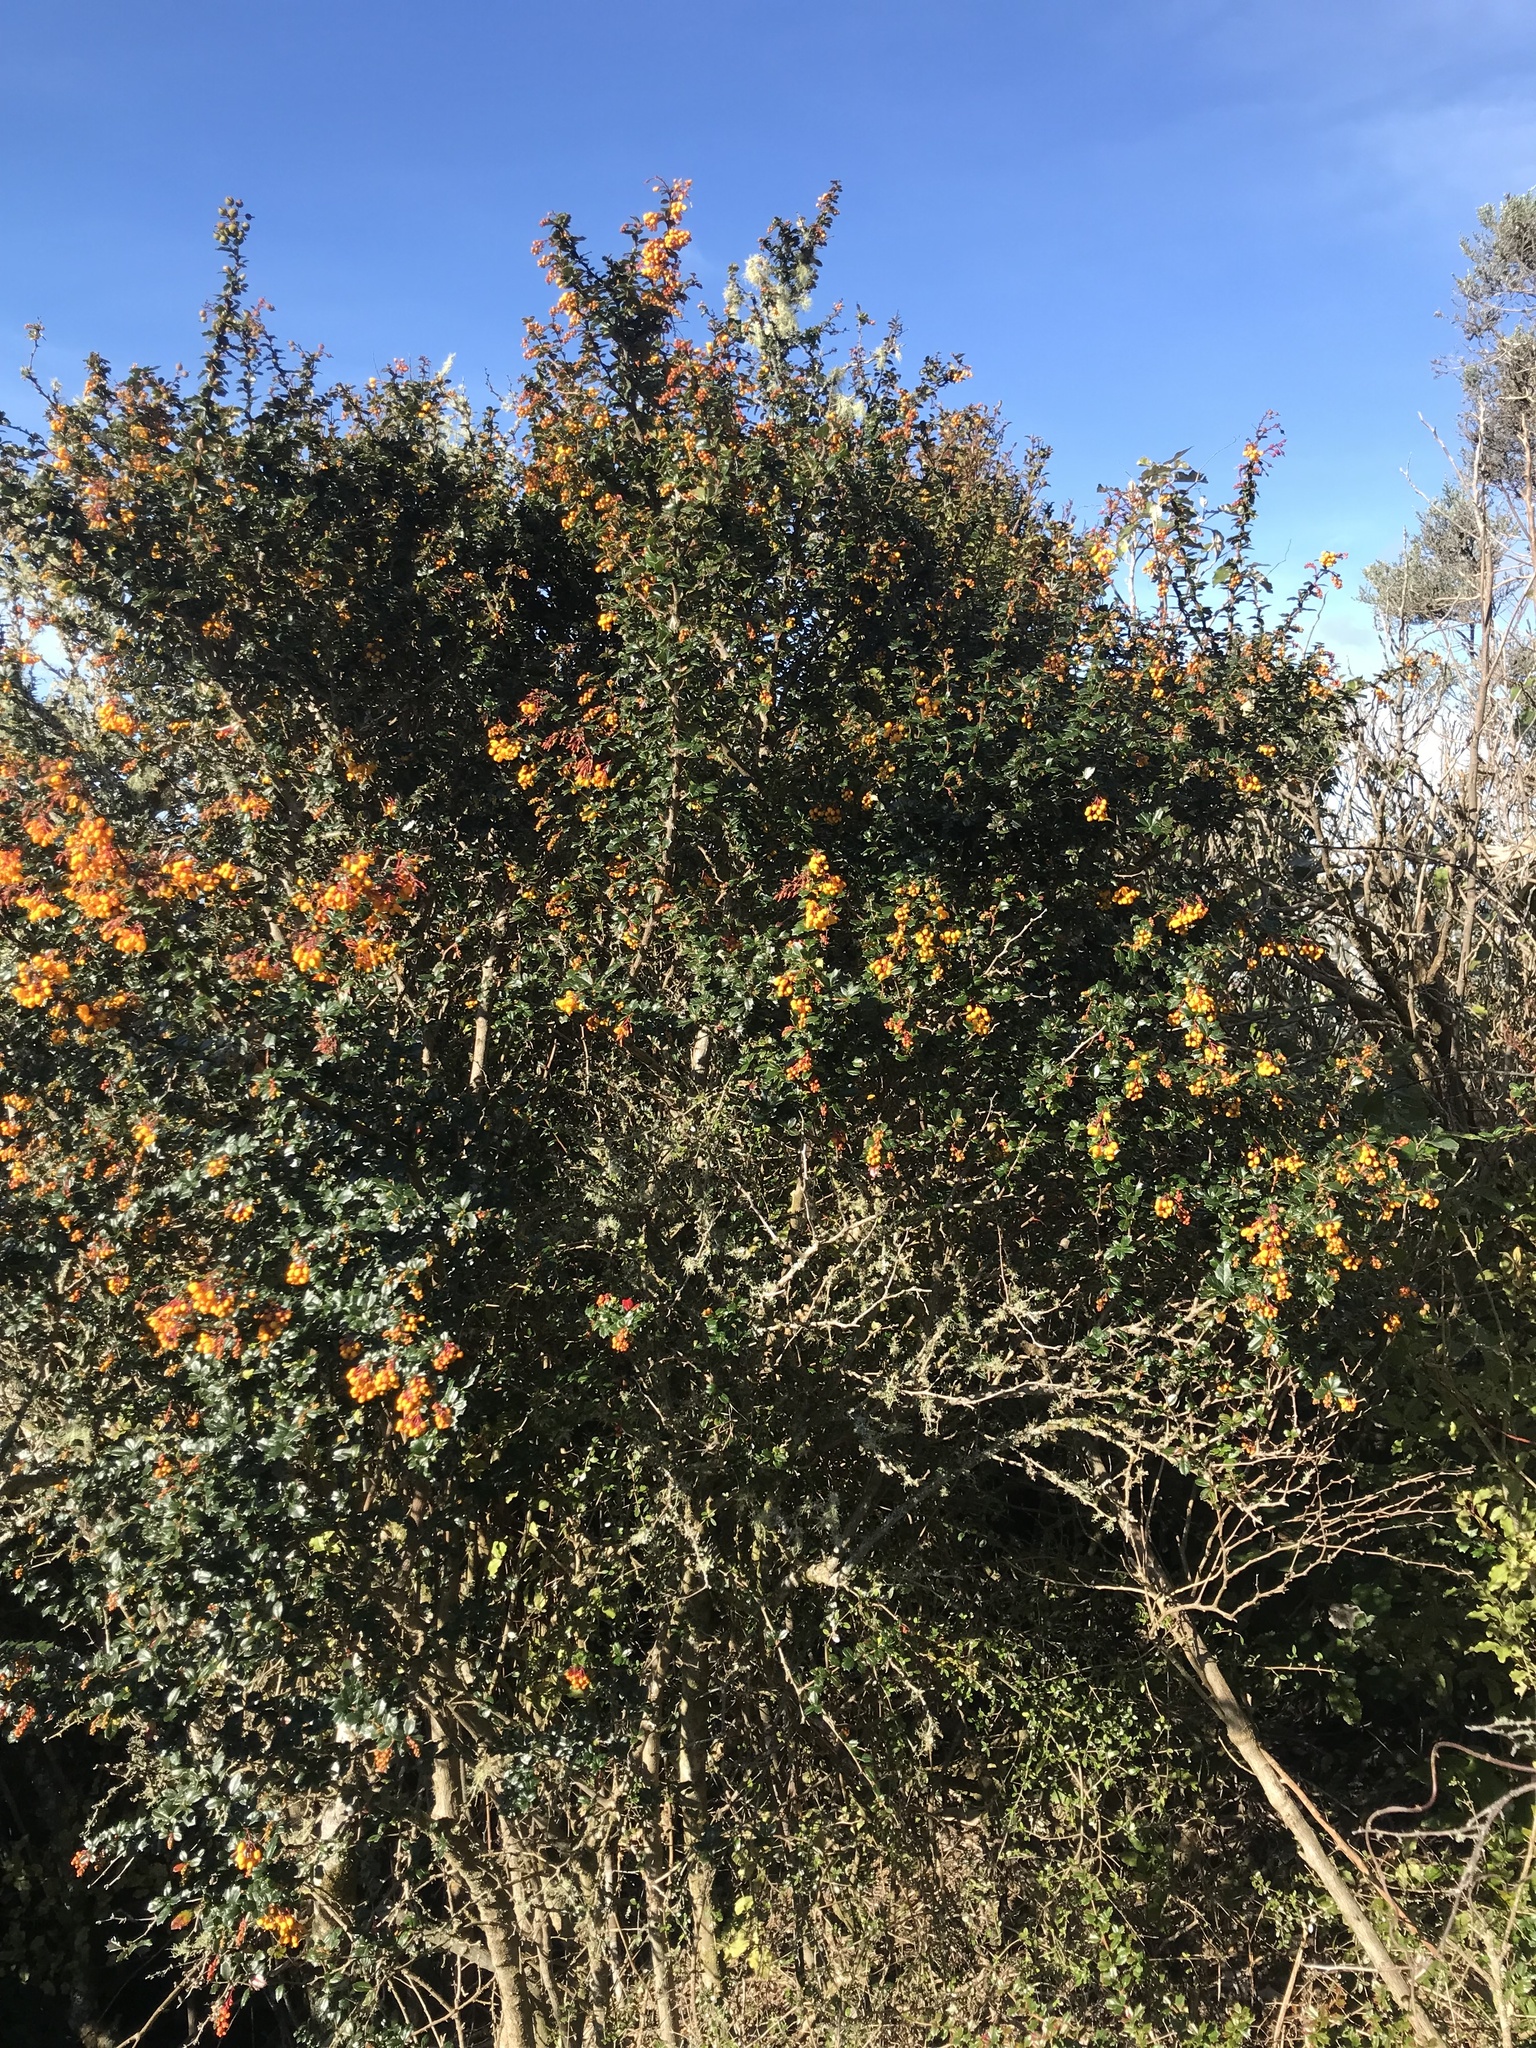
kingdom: Plantae
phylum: Tracheophyta
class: Magnoliopsida
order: Ranunculales
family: Berberidaceae
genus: Berberis
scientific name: Berberis darwinii
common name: Darwin's barberry
